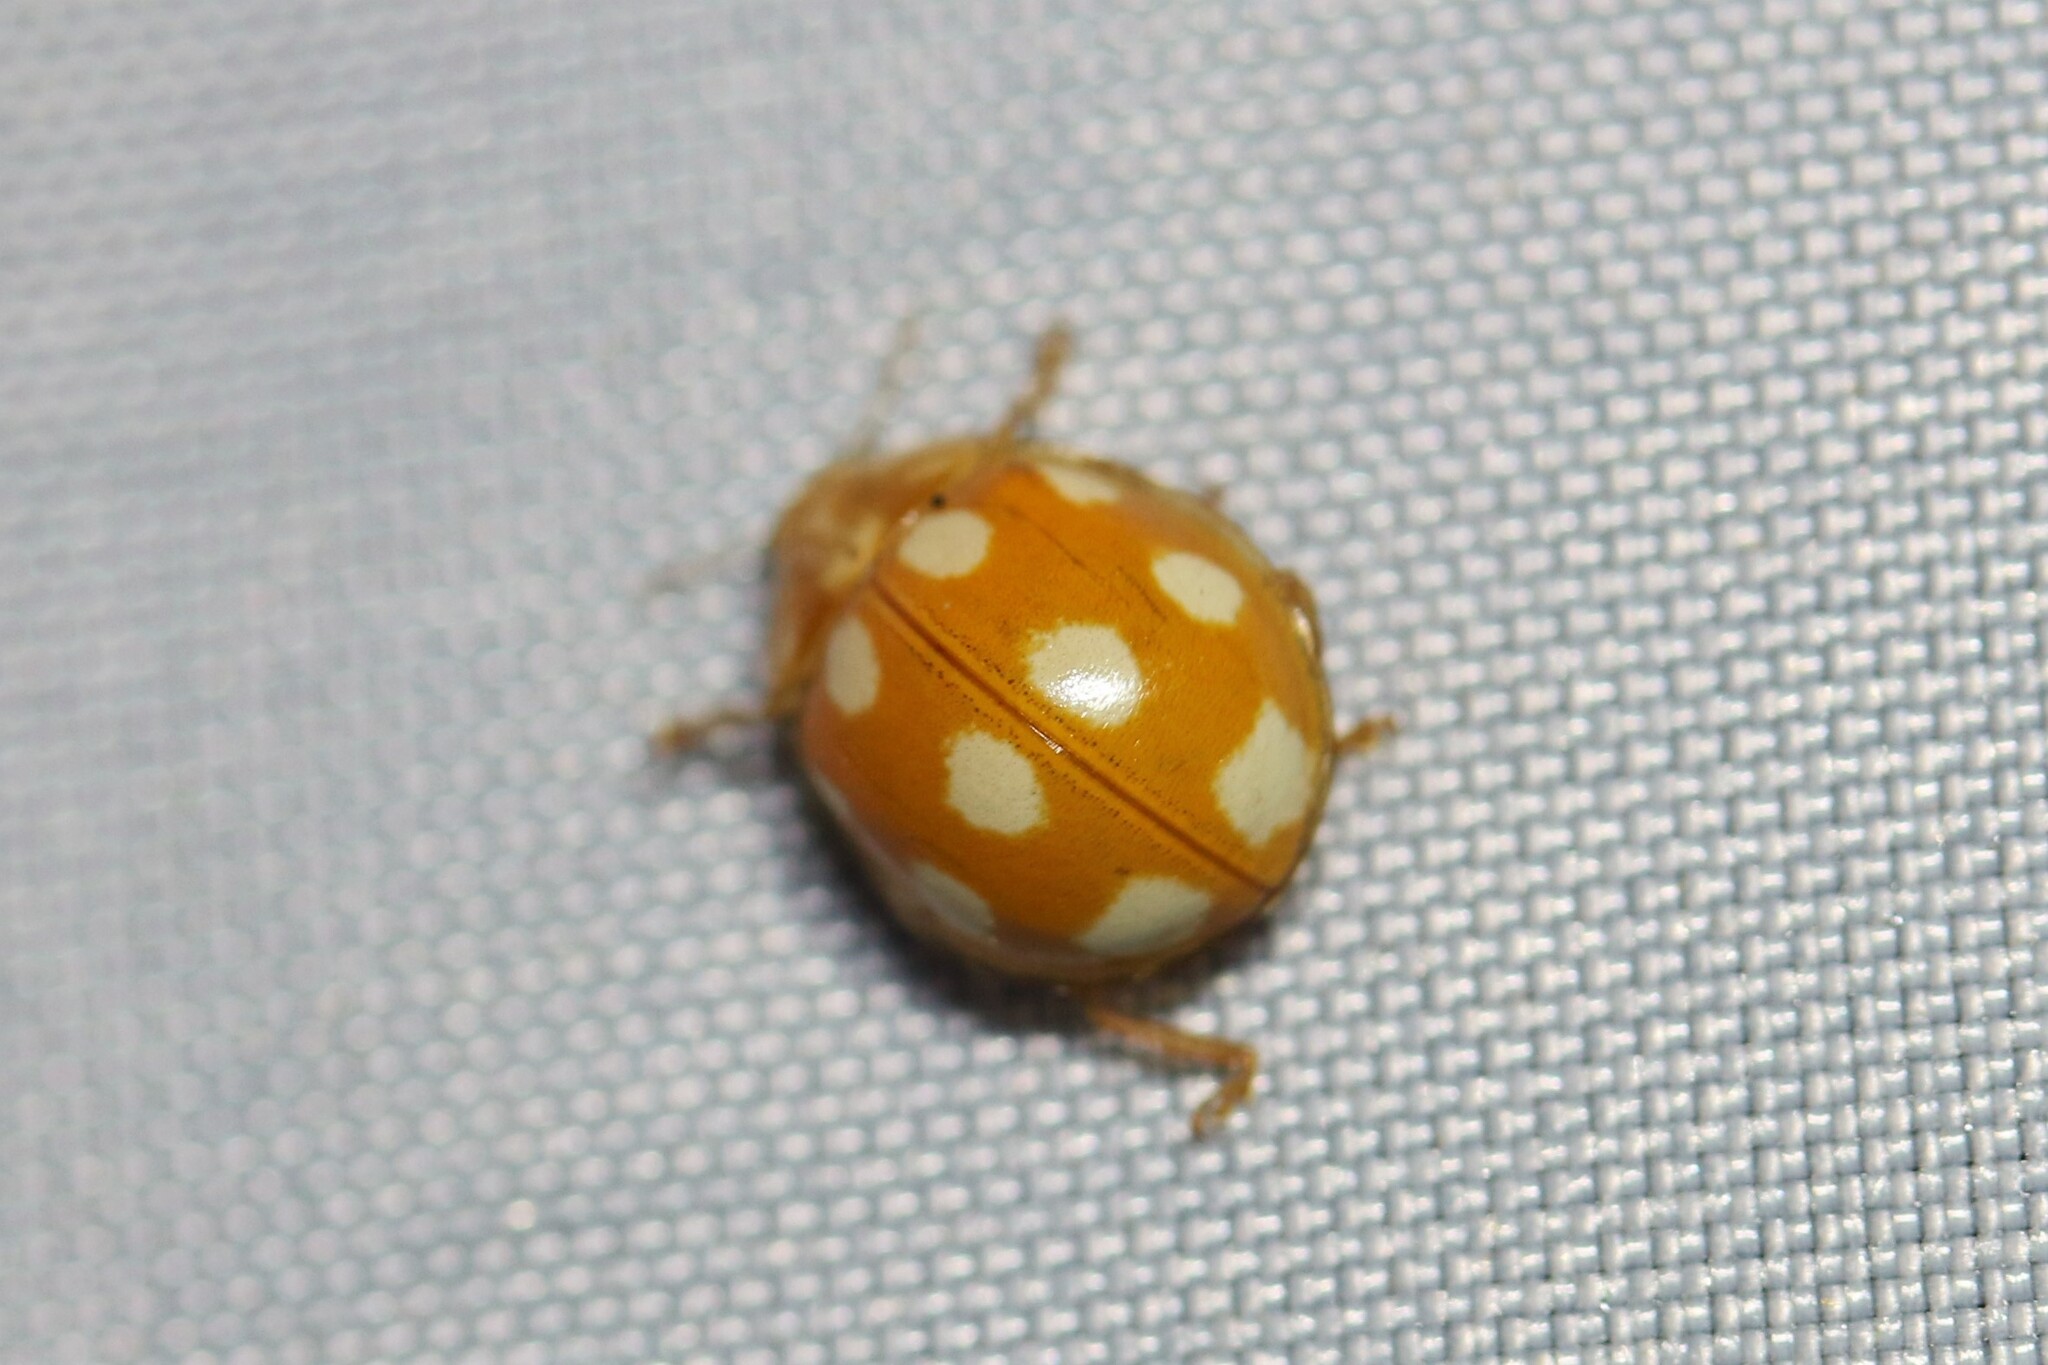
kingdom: Animalia
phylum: Arthropoda
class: Insecta
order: Coleoptera
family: Coccinellidae
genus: Calvia
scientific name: Calvia decemguttata
